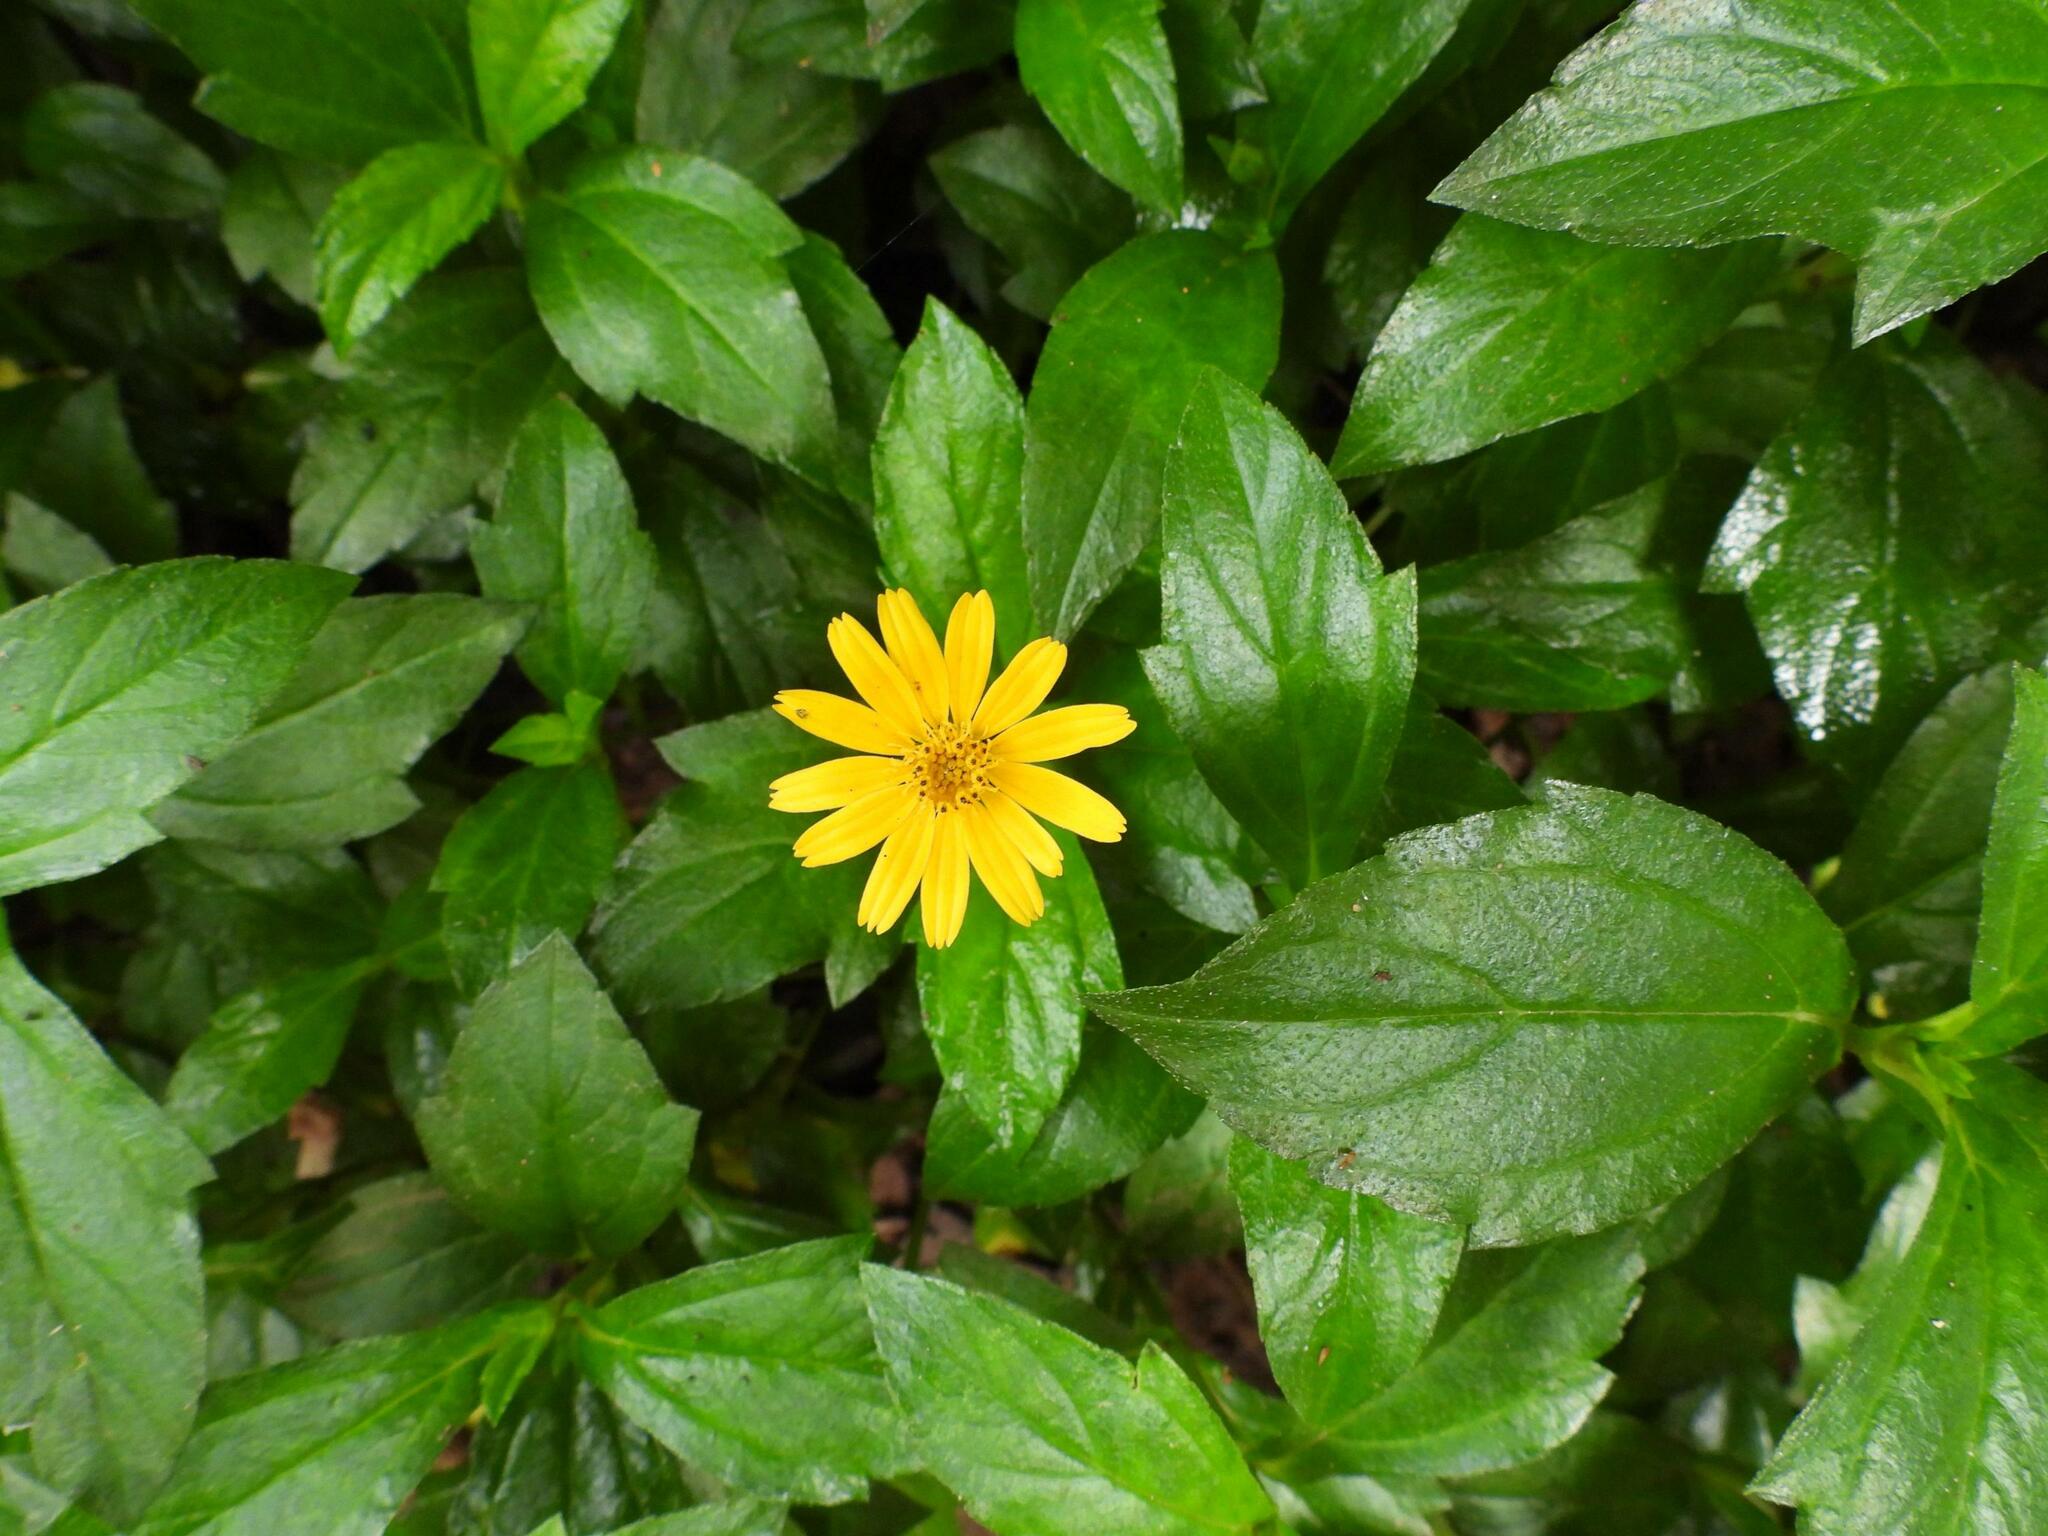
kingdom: Plantae
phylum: Tracheophyta
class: Magnoliopsida
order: Asterales
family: Asteraceae
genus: Sphagneticola
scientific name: Sphagneticola trilobata
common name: Bay biscayne creeping-oxeye
